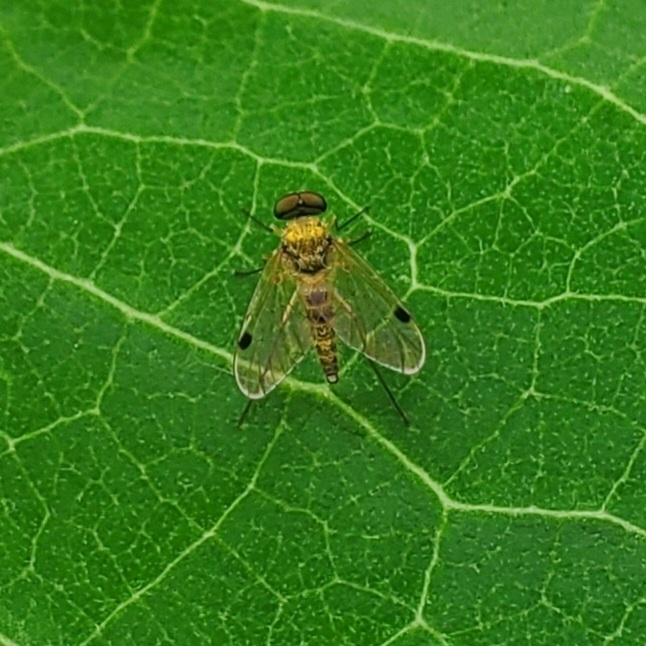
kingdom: Animalia
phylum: Arthropoda
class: Insecta
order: Diptera
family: Rhagionidae
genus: Chrysopilus
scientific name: Chrysopilus modestus
